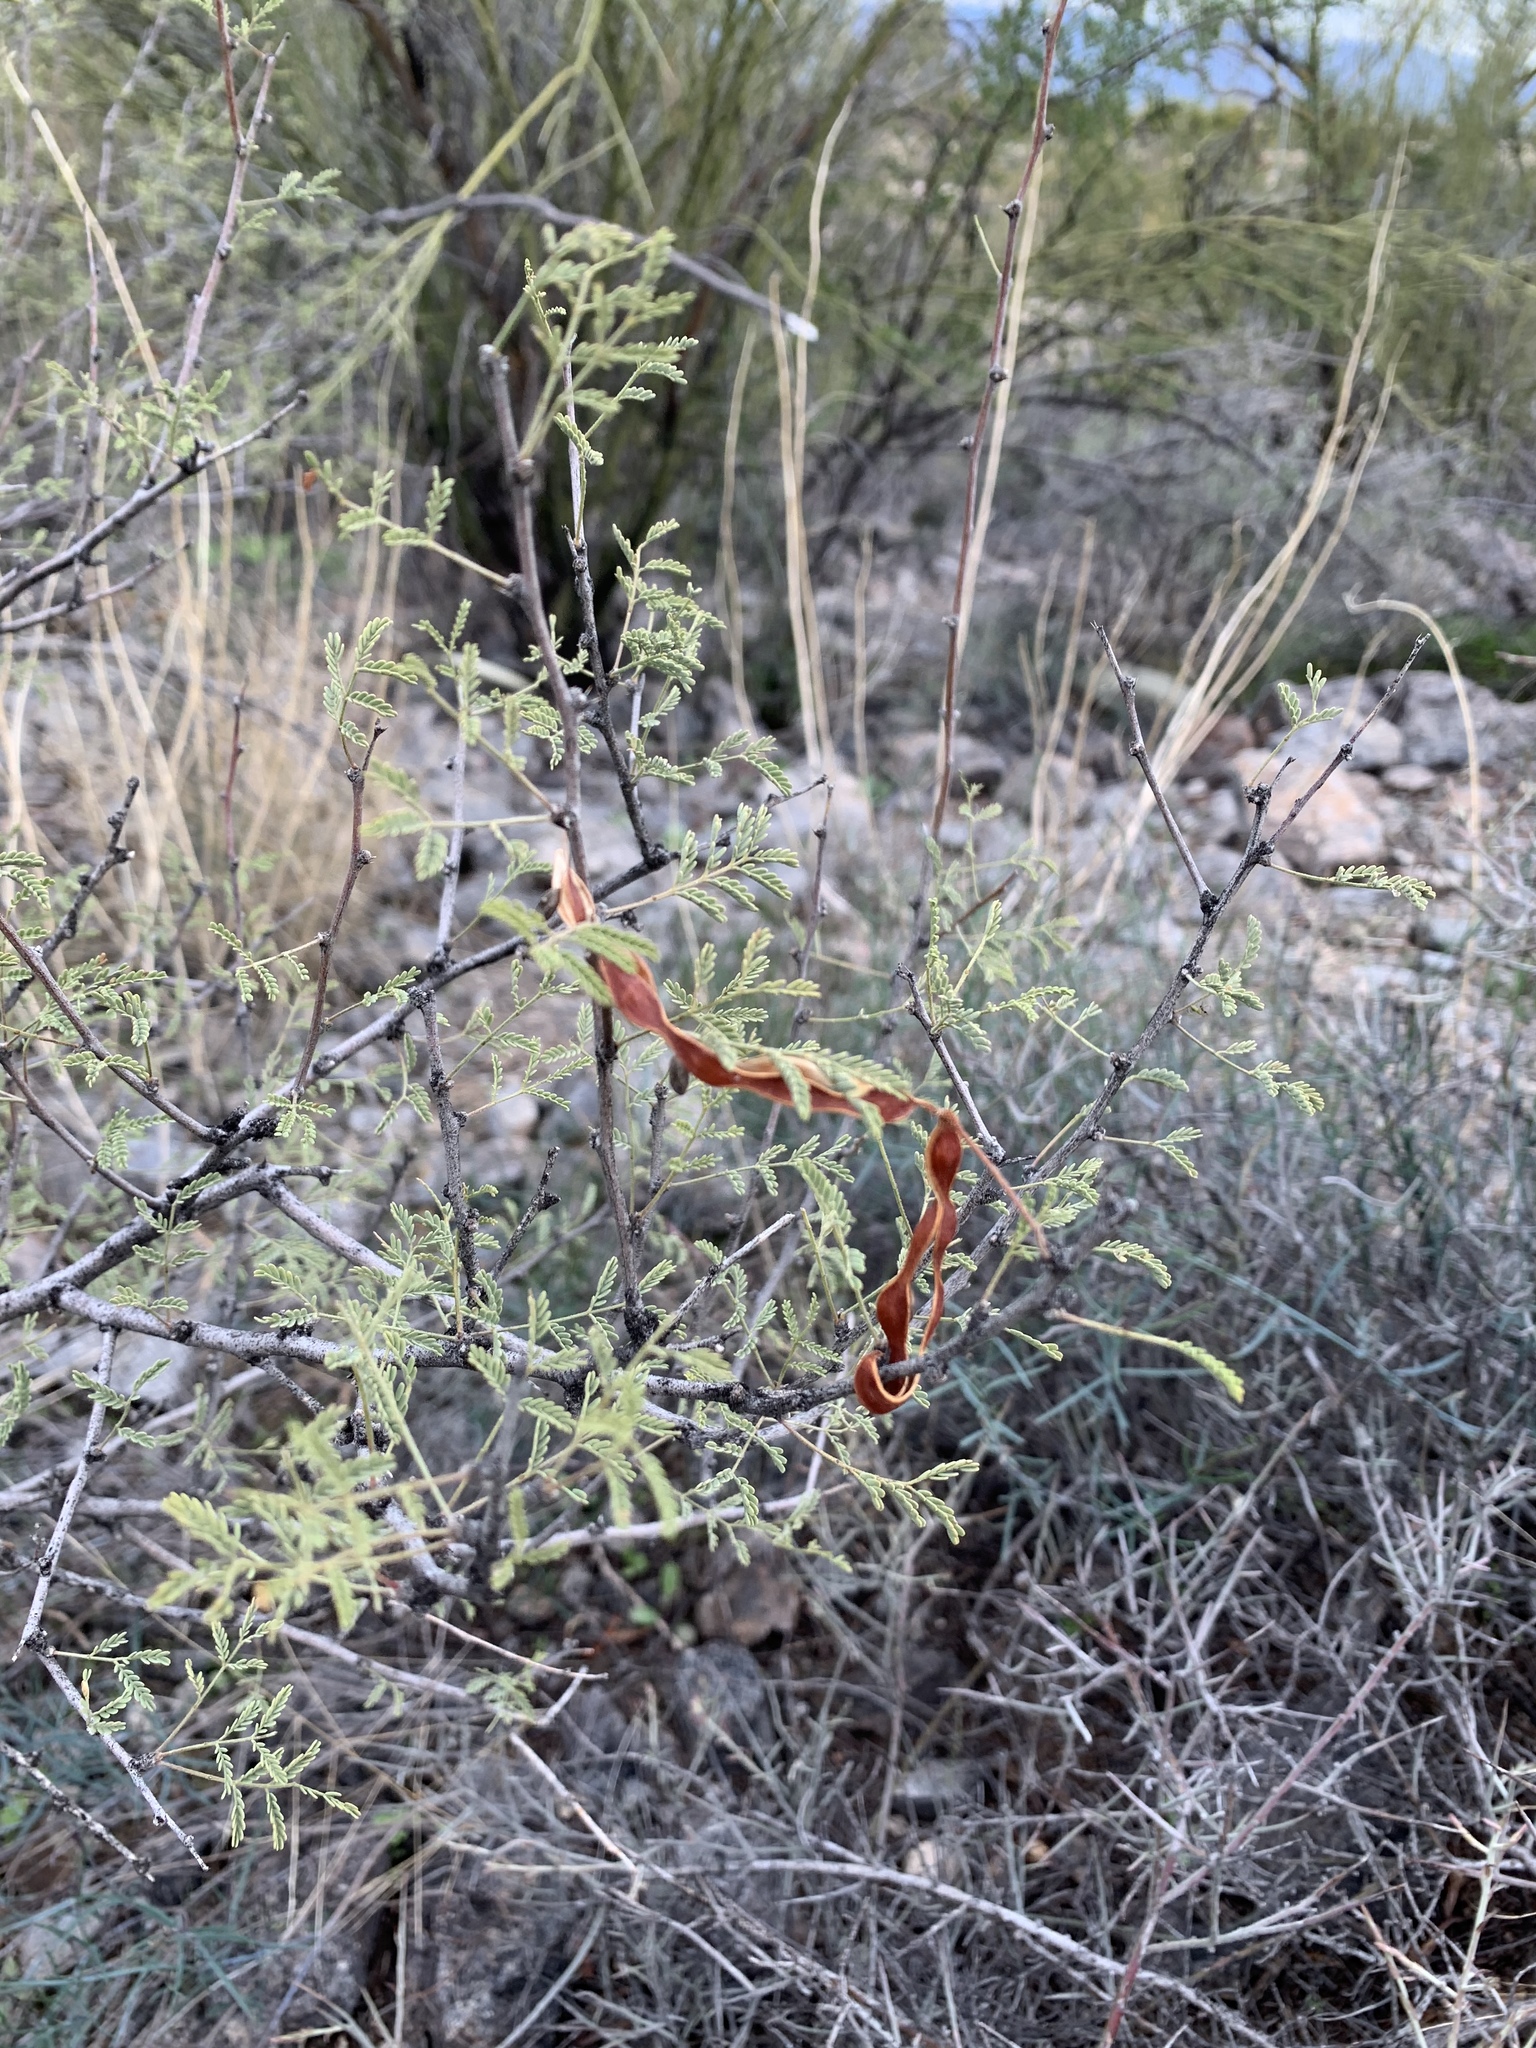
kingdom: Plantae
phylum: Tracheophyta
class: Magnoliopsida
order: Fabales
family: Fabaceae
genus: Vachellia
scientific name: Vachellia constricta
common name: Mescat acacia
